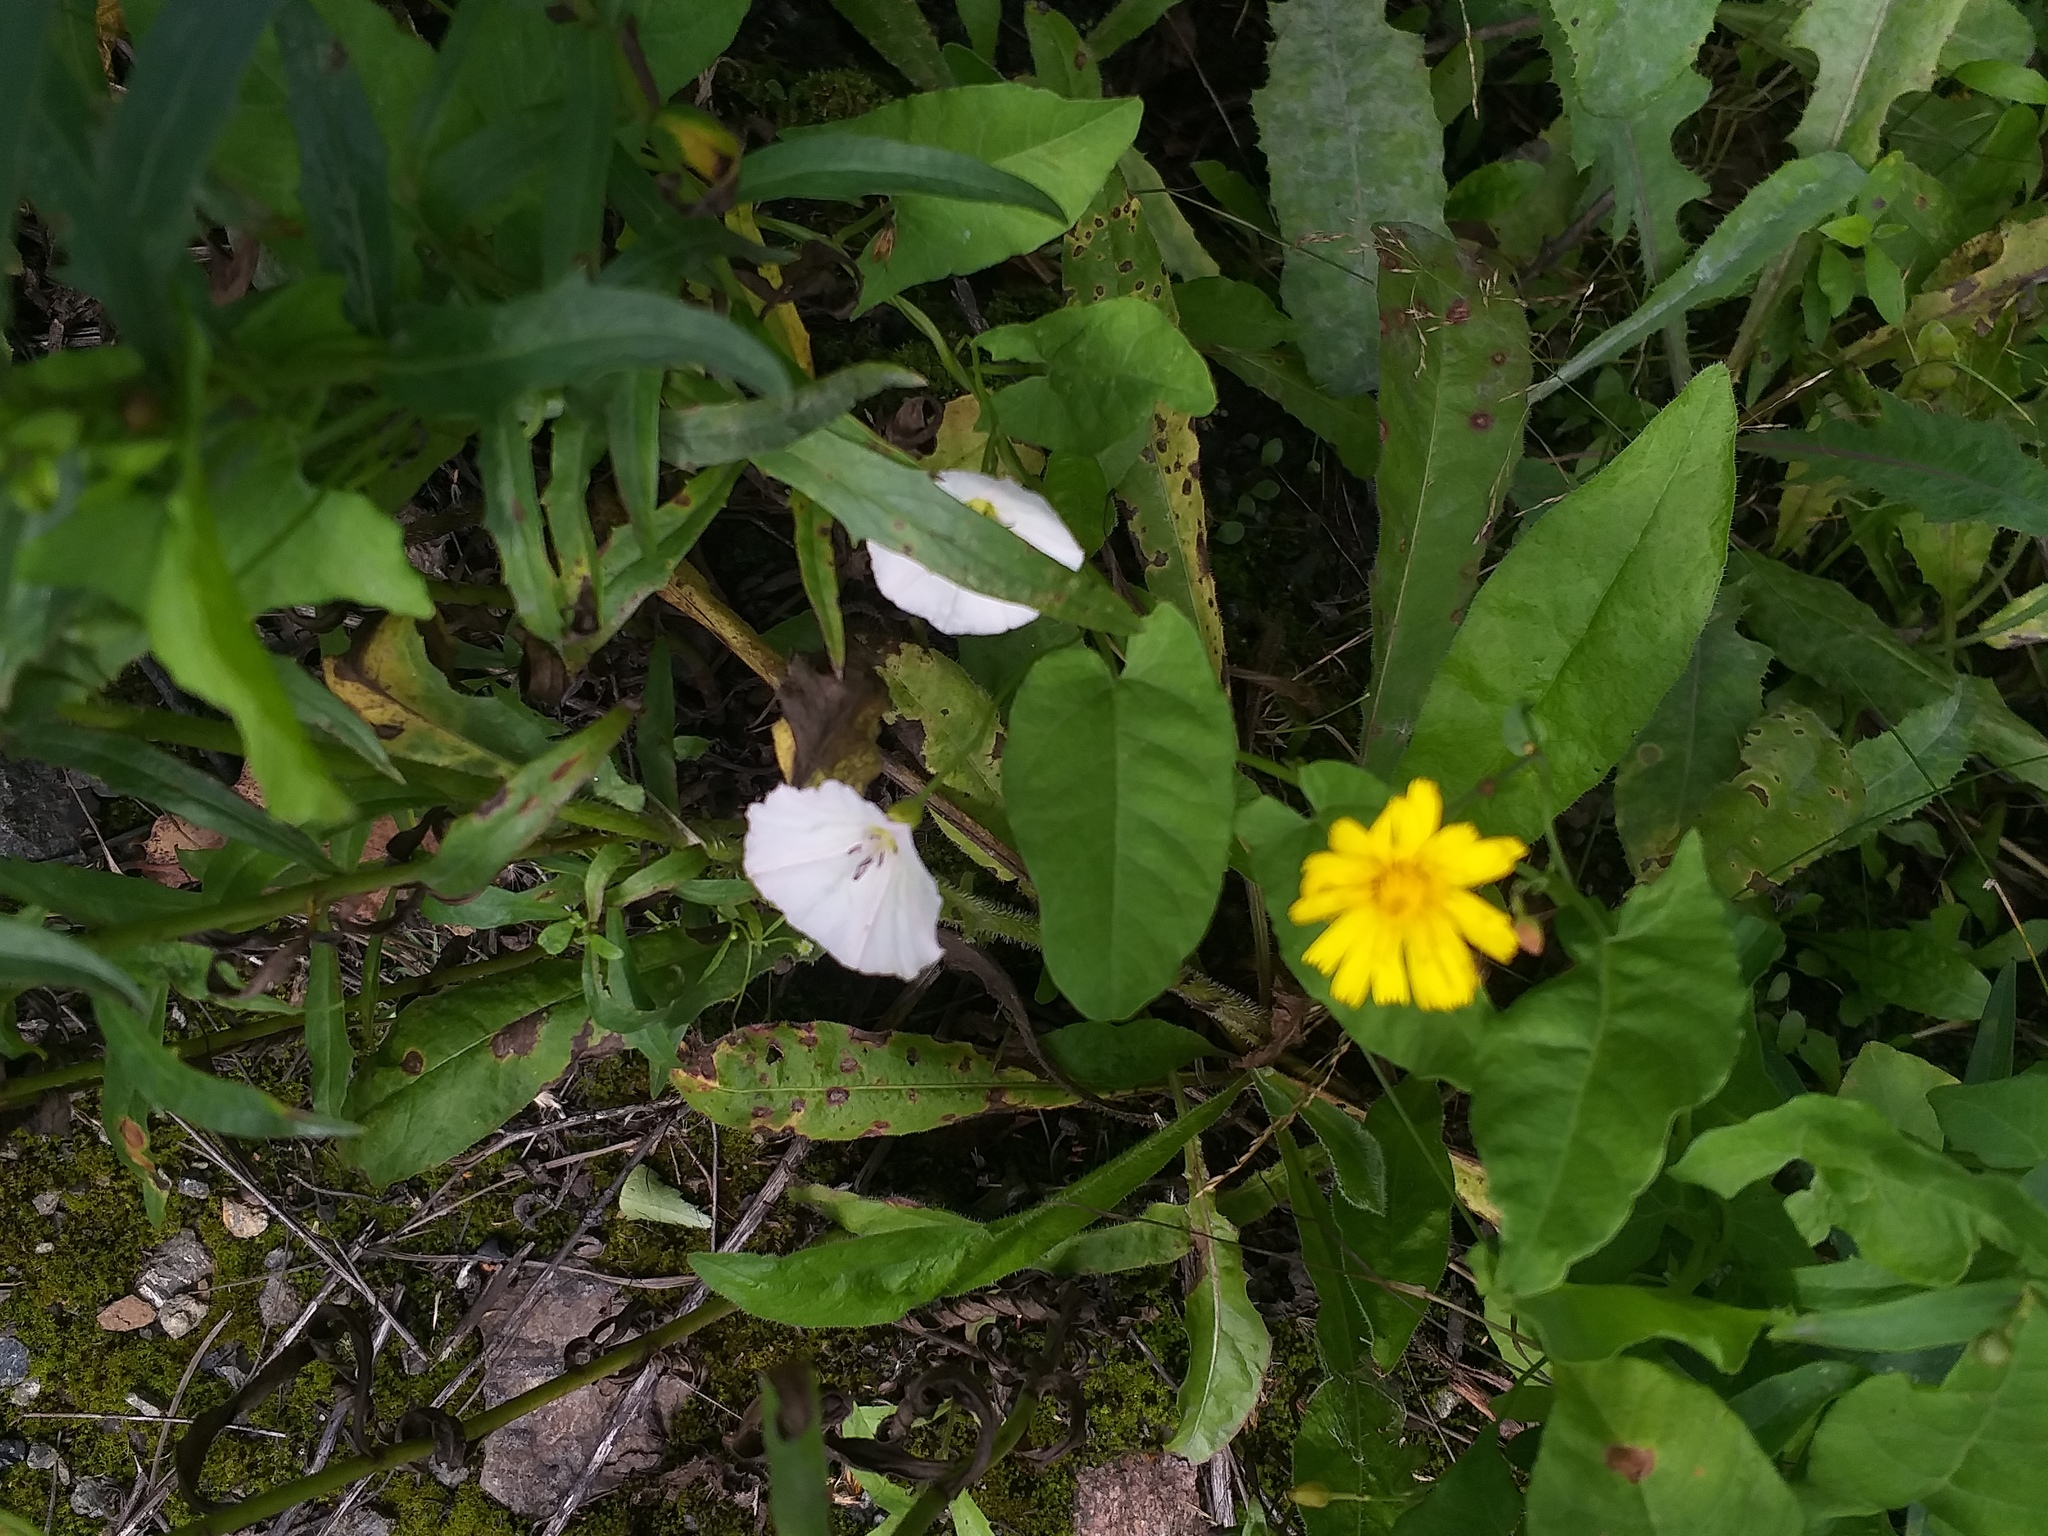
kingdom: Plantae
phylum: Tracheophyta
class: Magnoliopsida
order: Solanales
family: Convolvulaceae
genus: Convolvulus
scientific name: Convolvulus arvensis
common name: Field bindweed
